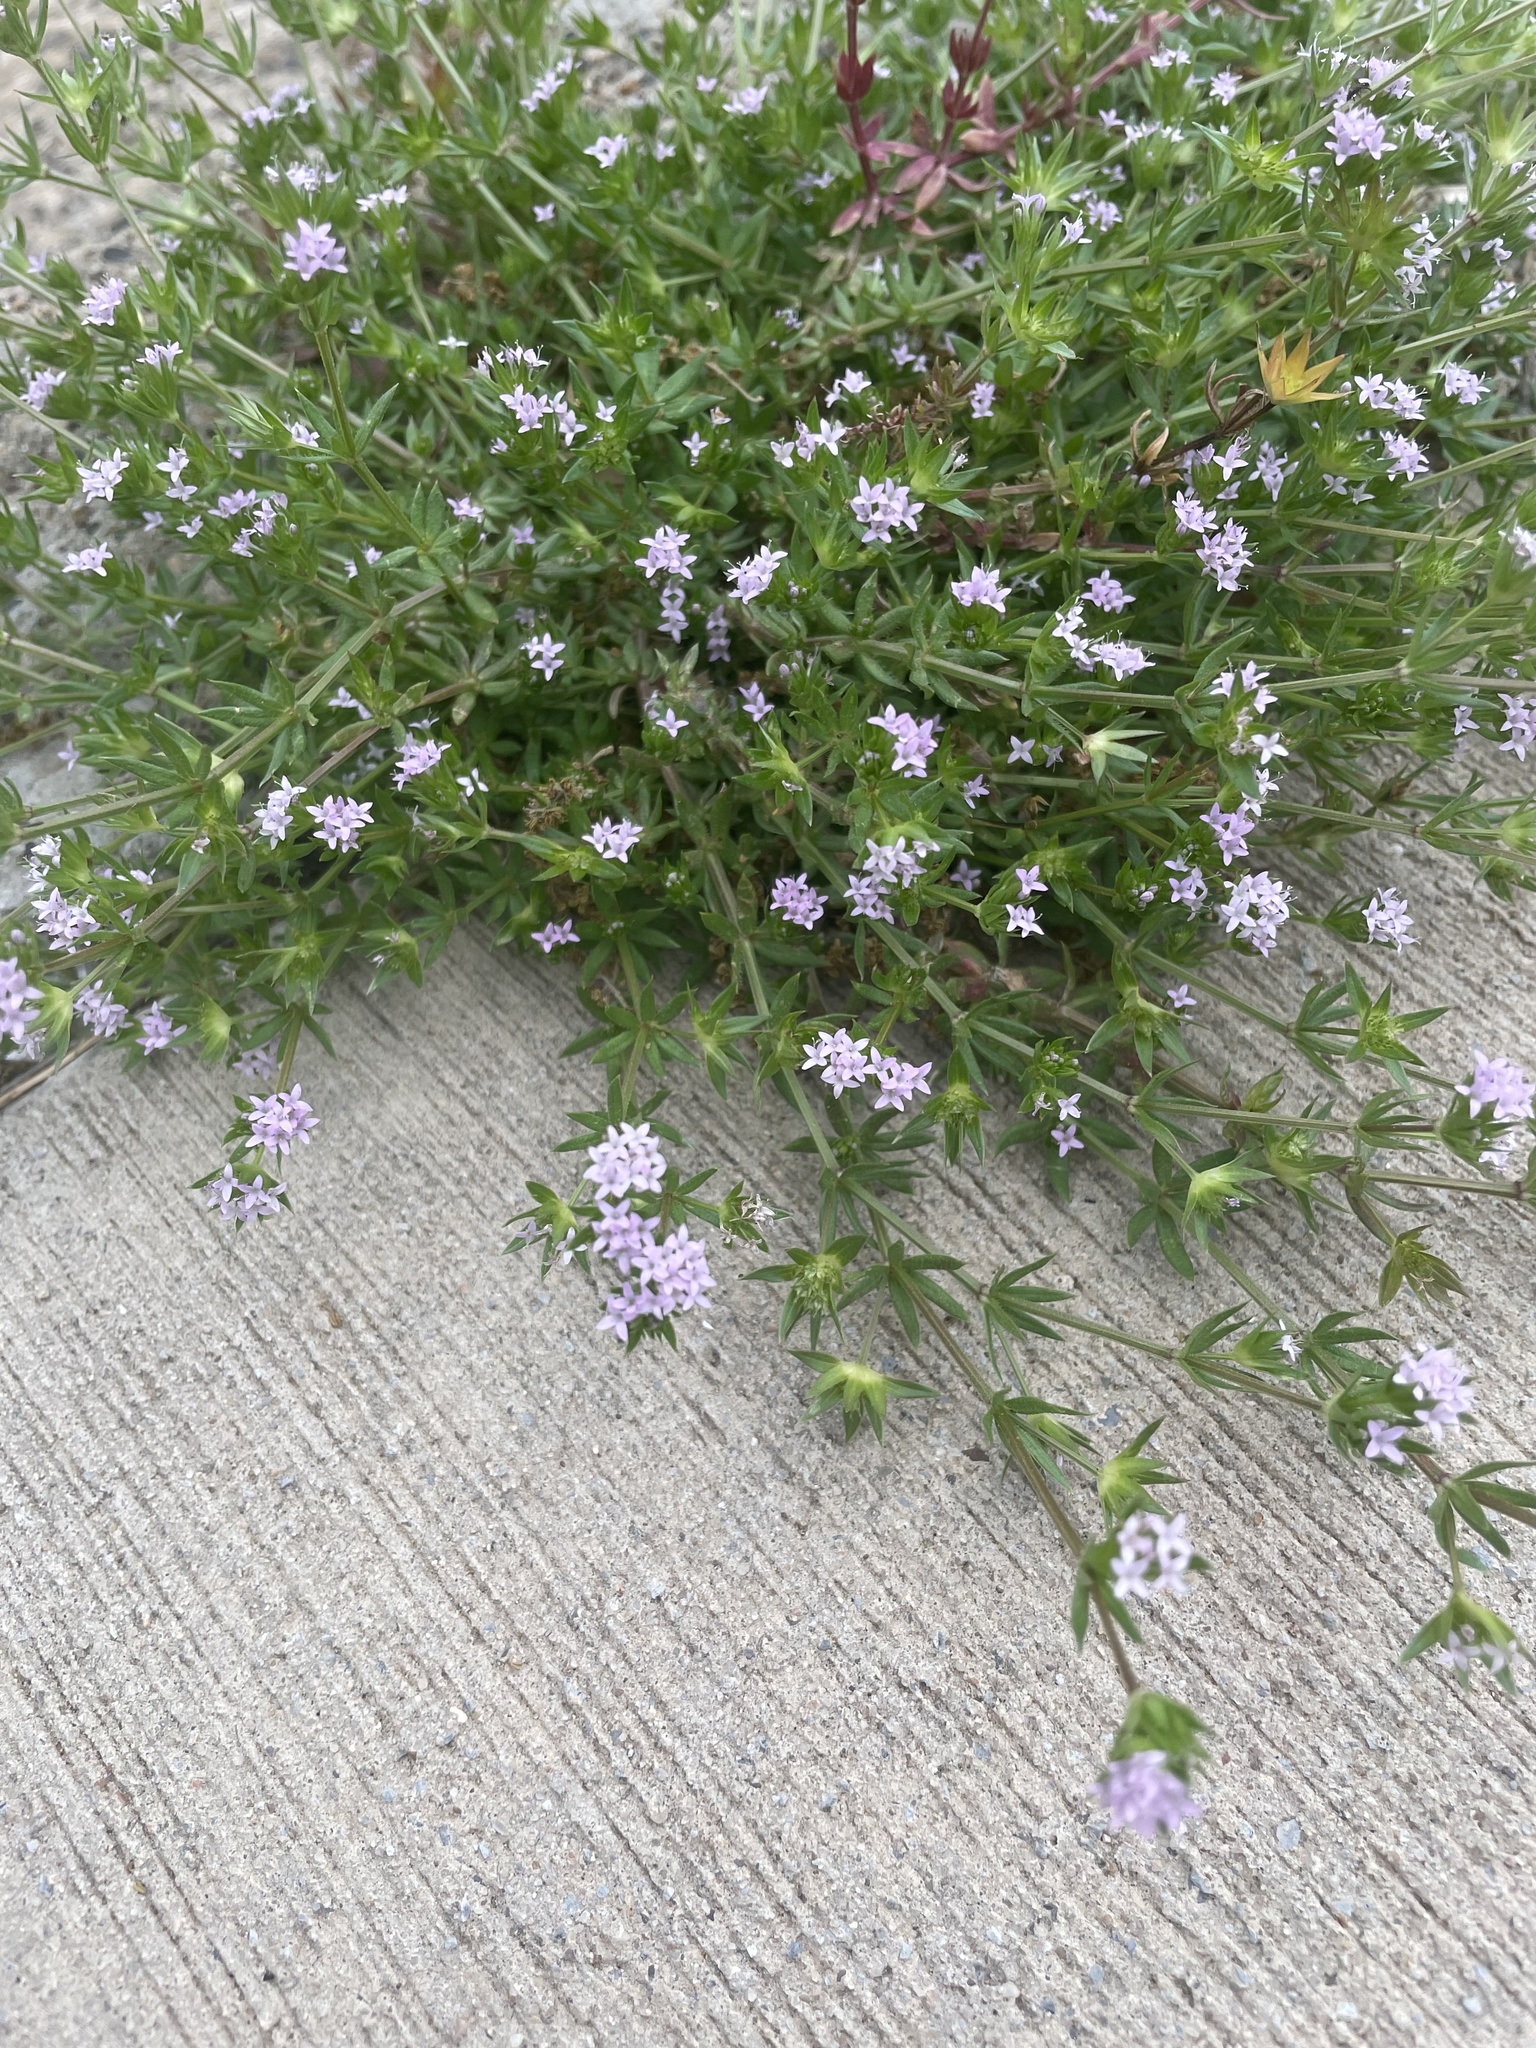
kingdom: Plantae
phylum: Tracheophyta
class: Magnoliopsida
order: Gentianales
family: Rubiaceae
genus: Sherardia
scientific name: Sherardia arvensis
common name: Field madder
